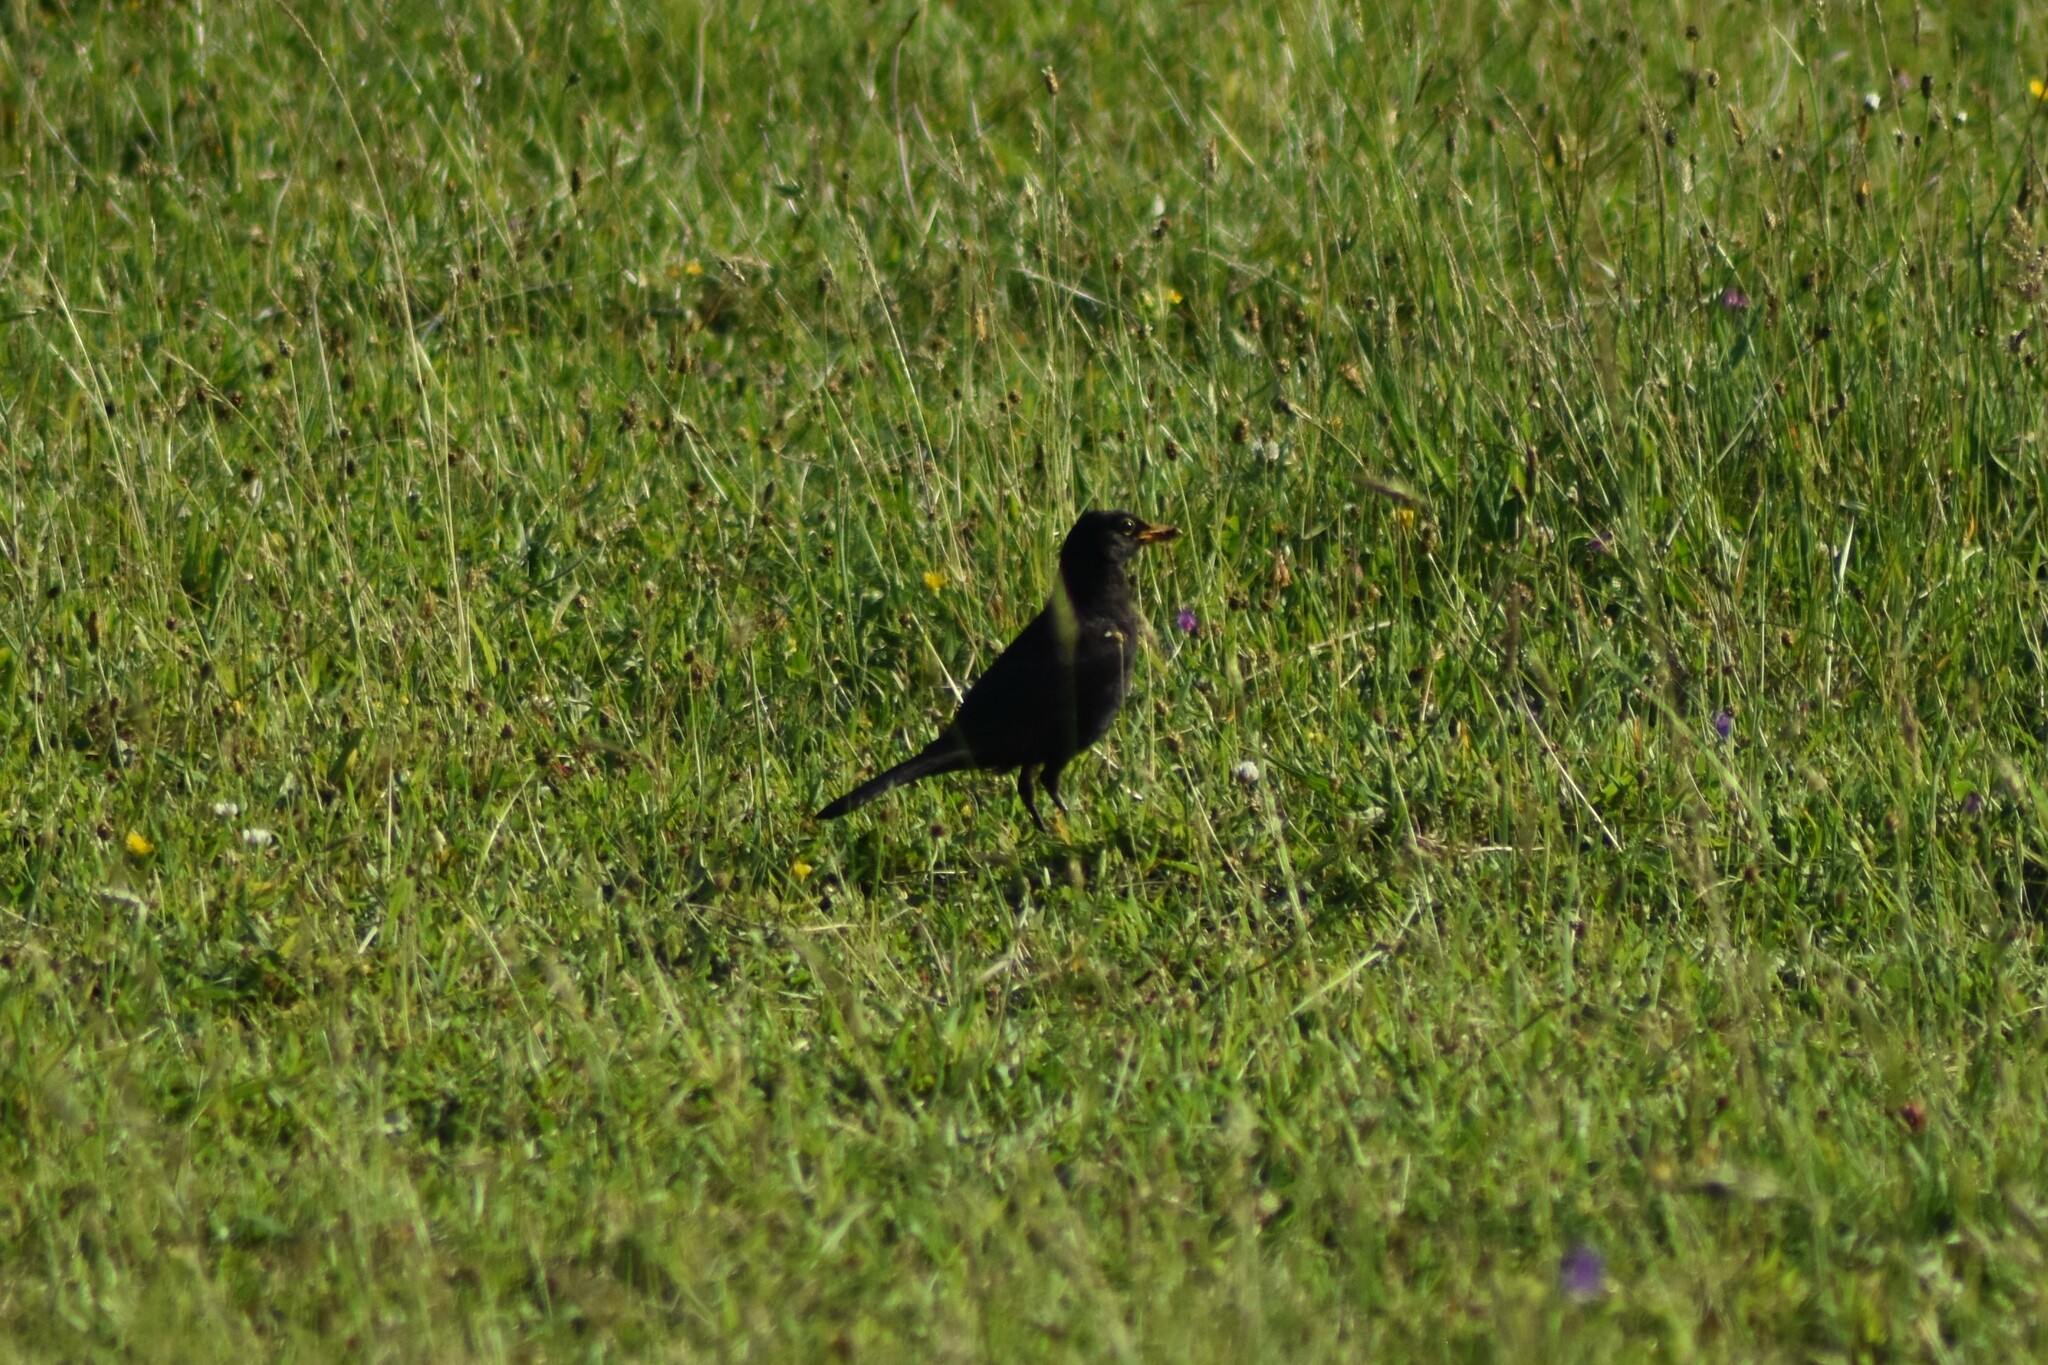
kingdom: Animalia
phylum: Chordata
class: Aves
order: Passeriformes
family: Turdidae
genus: Turdus
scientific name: Turdus merula
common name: Common blackbird
